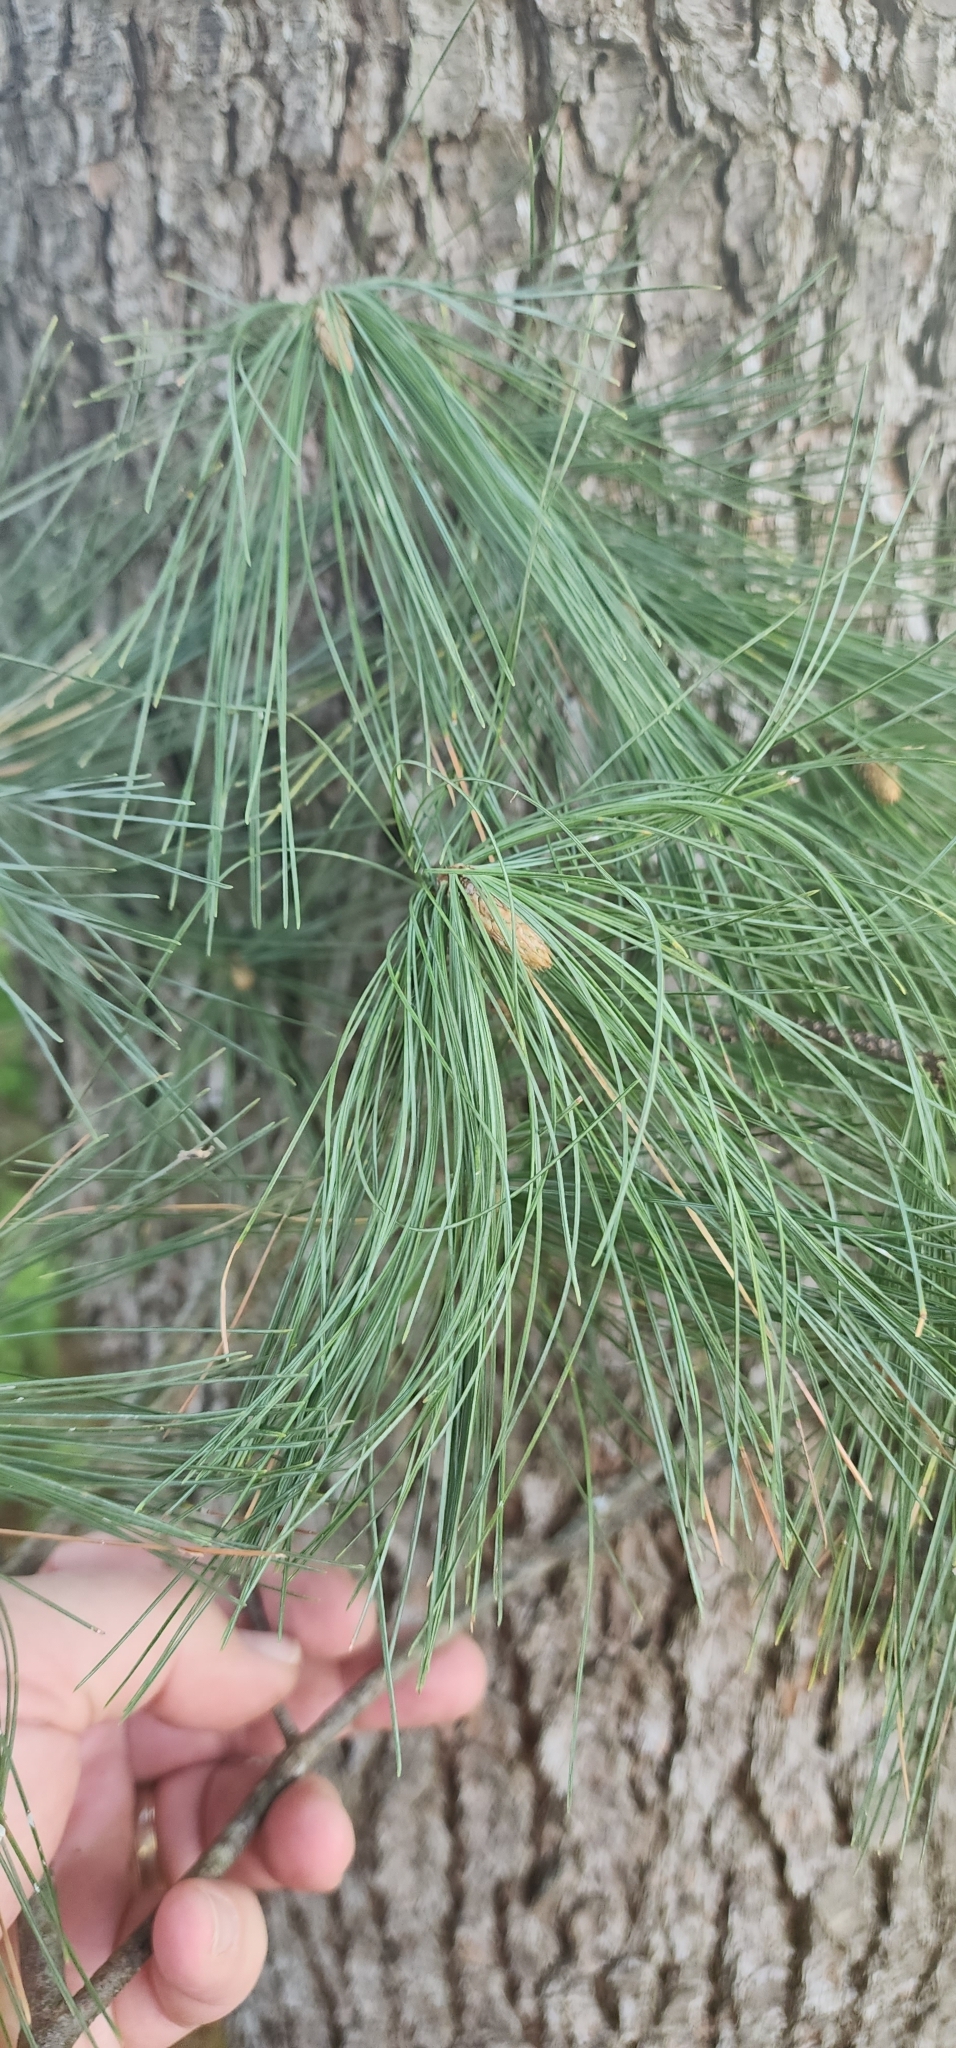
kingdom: Plantae
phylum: Tracheophyta
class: Pinopsida
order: Pinales
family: Pinaceae
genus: Pinus
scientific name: Pinus strobus
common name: Weymouth pine
